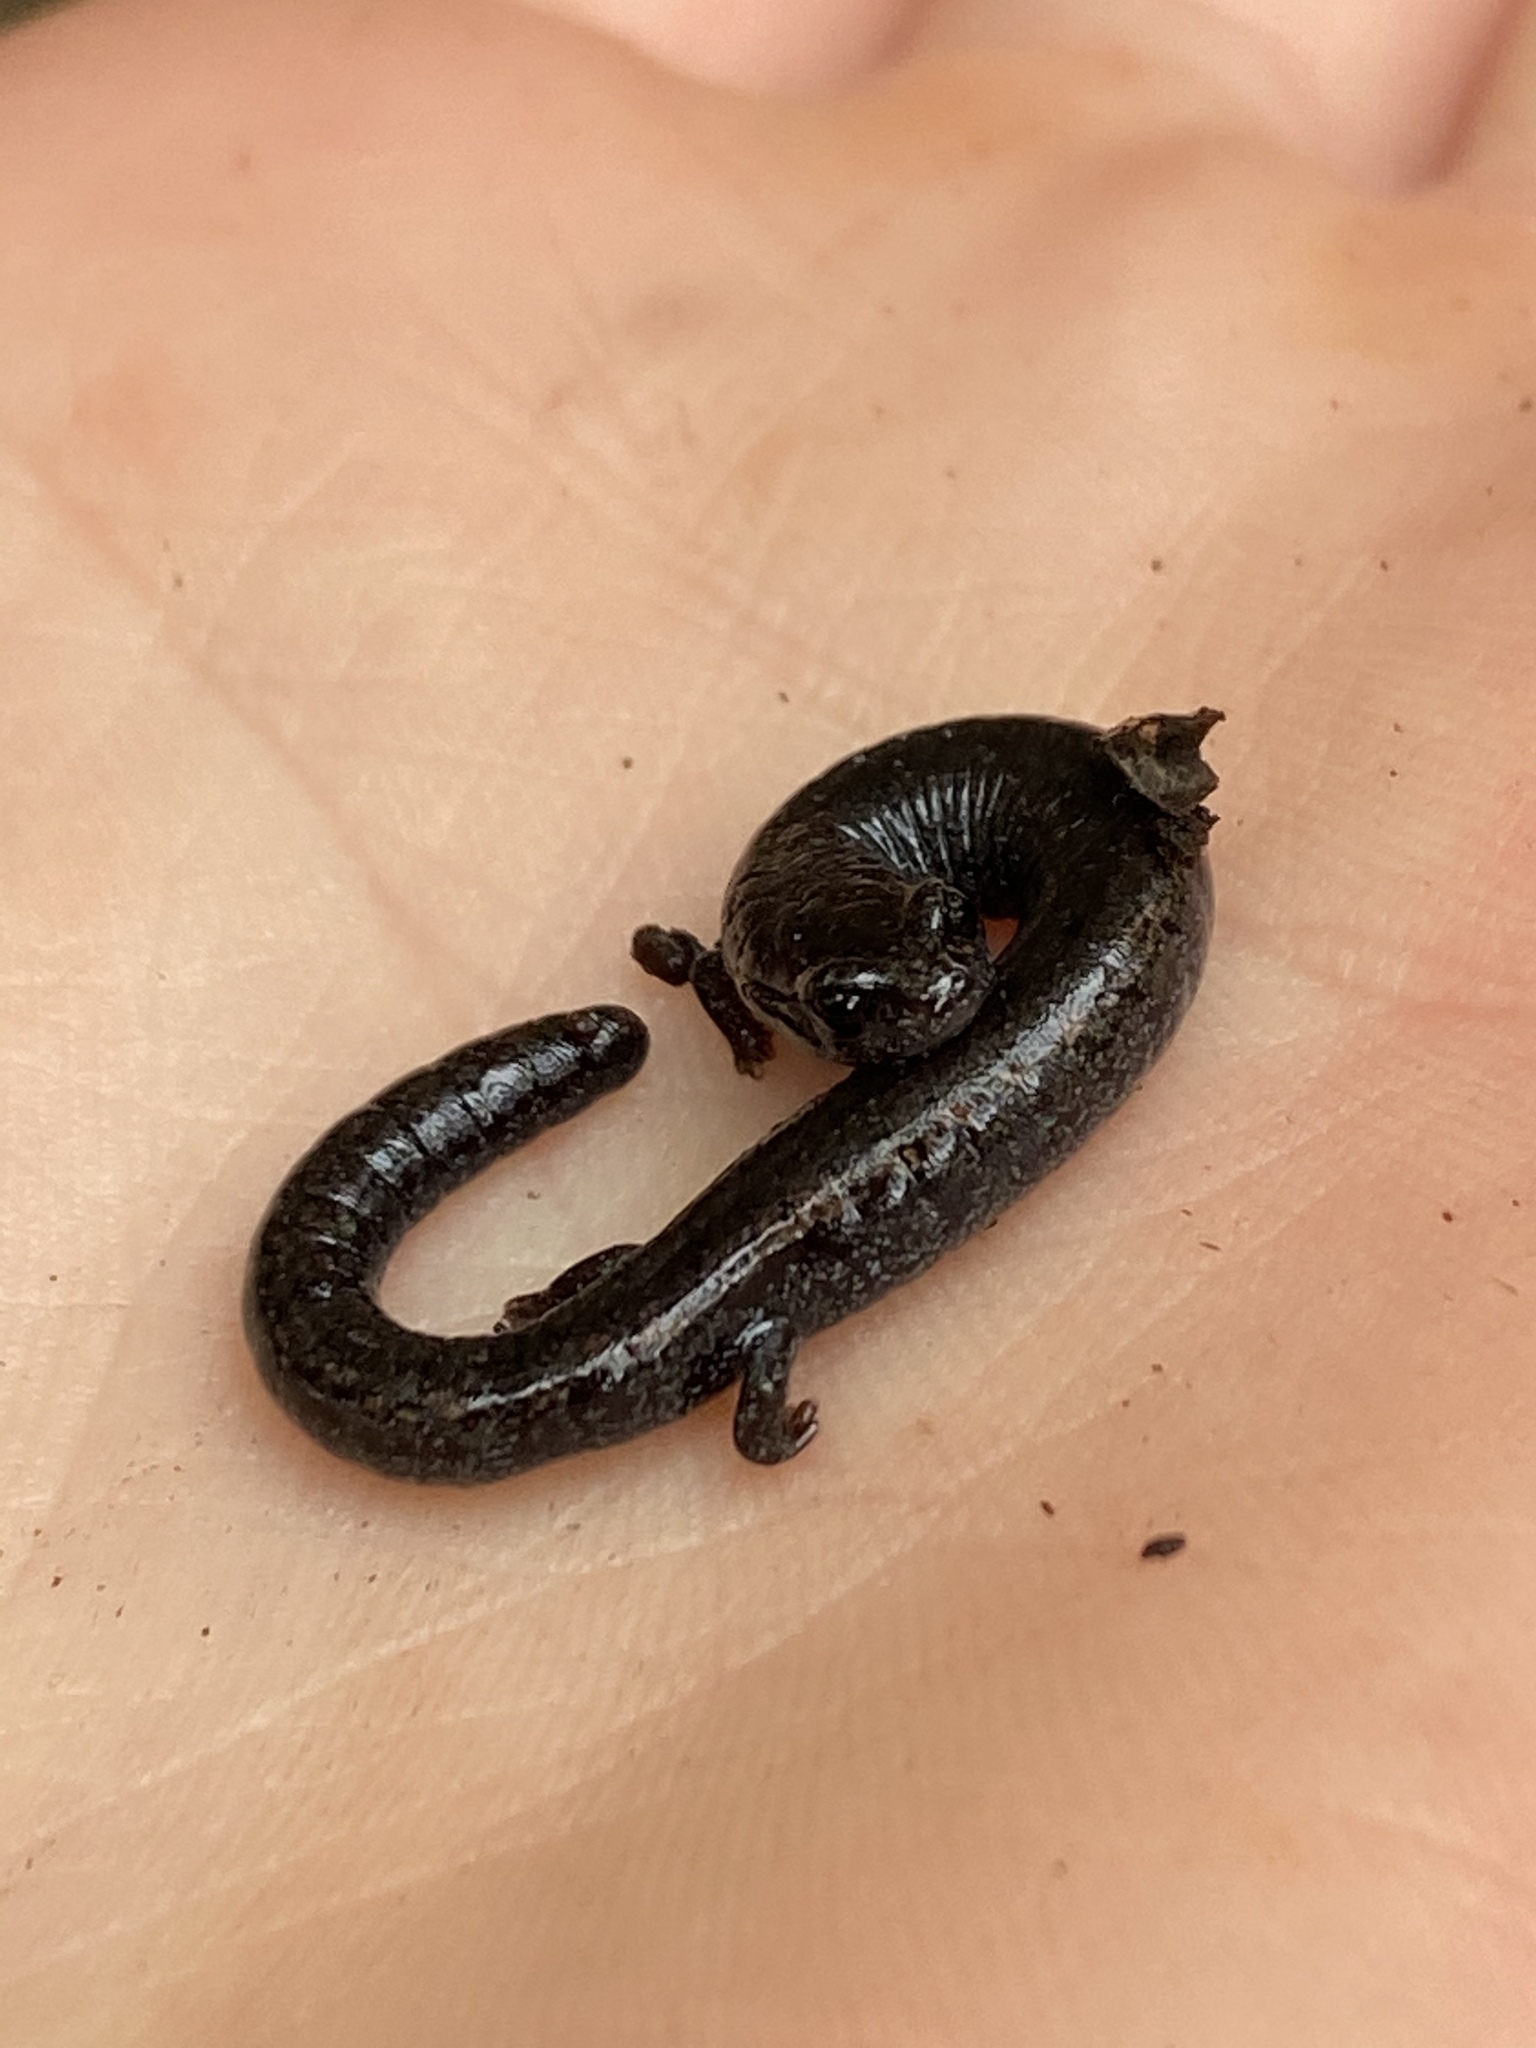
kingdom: Animalia
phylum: Chordata
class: Amphibia
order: Caudata
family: Plethodontidae
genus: Batrachoseps
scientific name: Batrachoseps attenuatus
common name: California slender salamander
